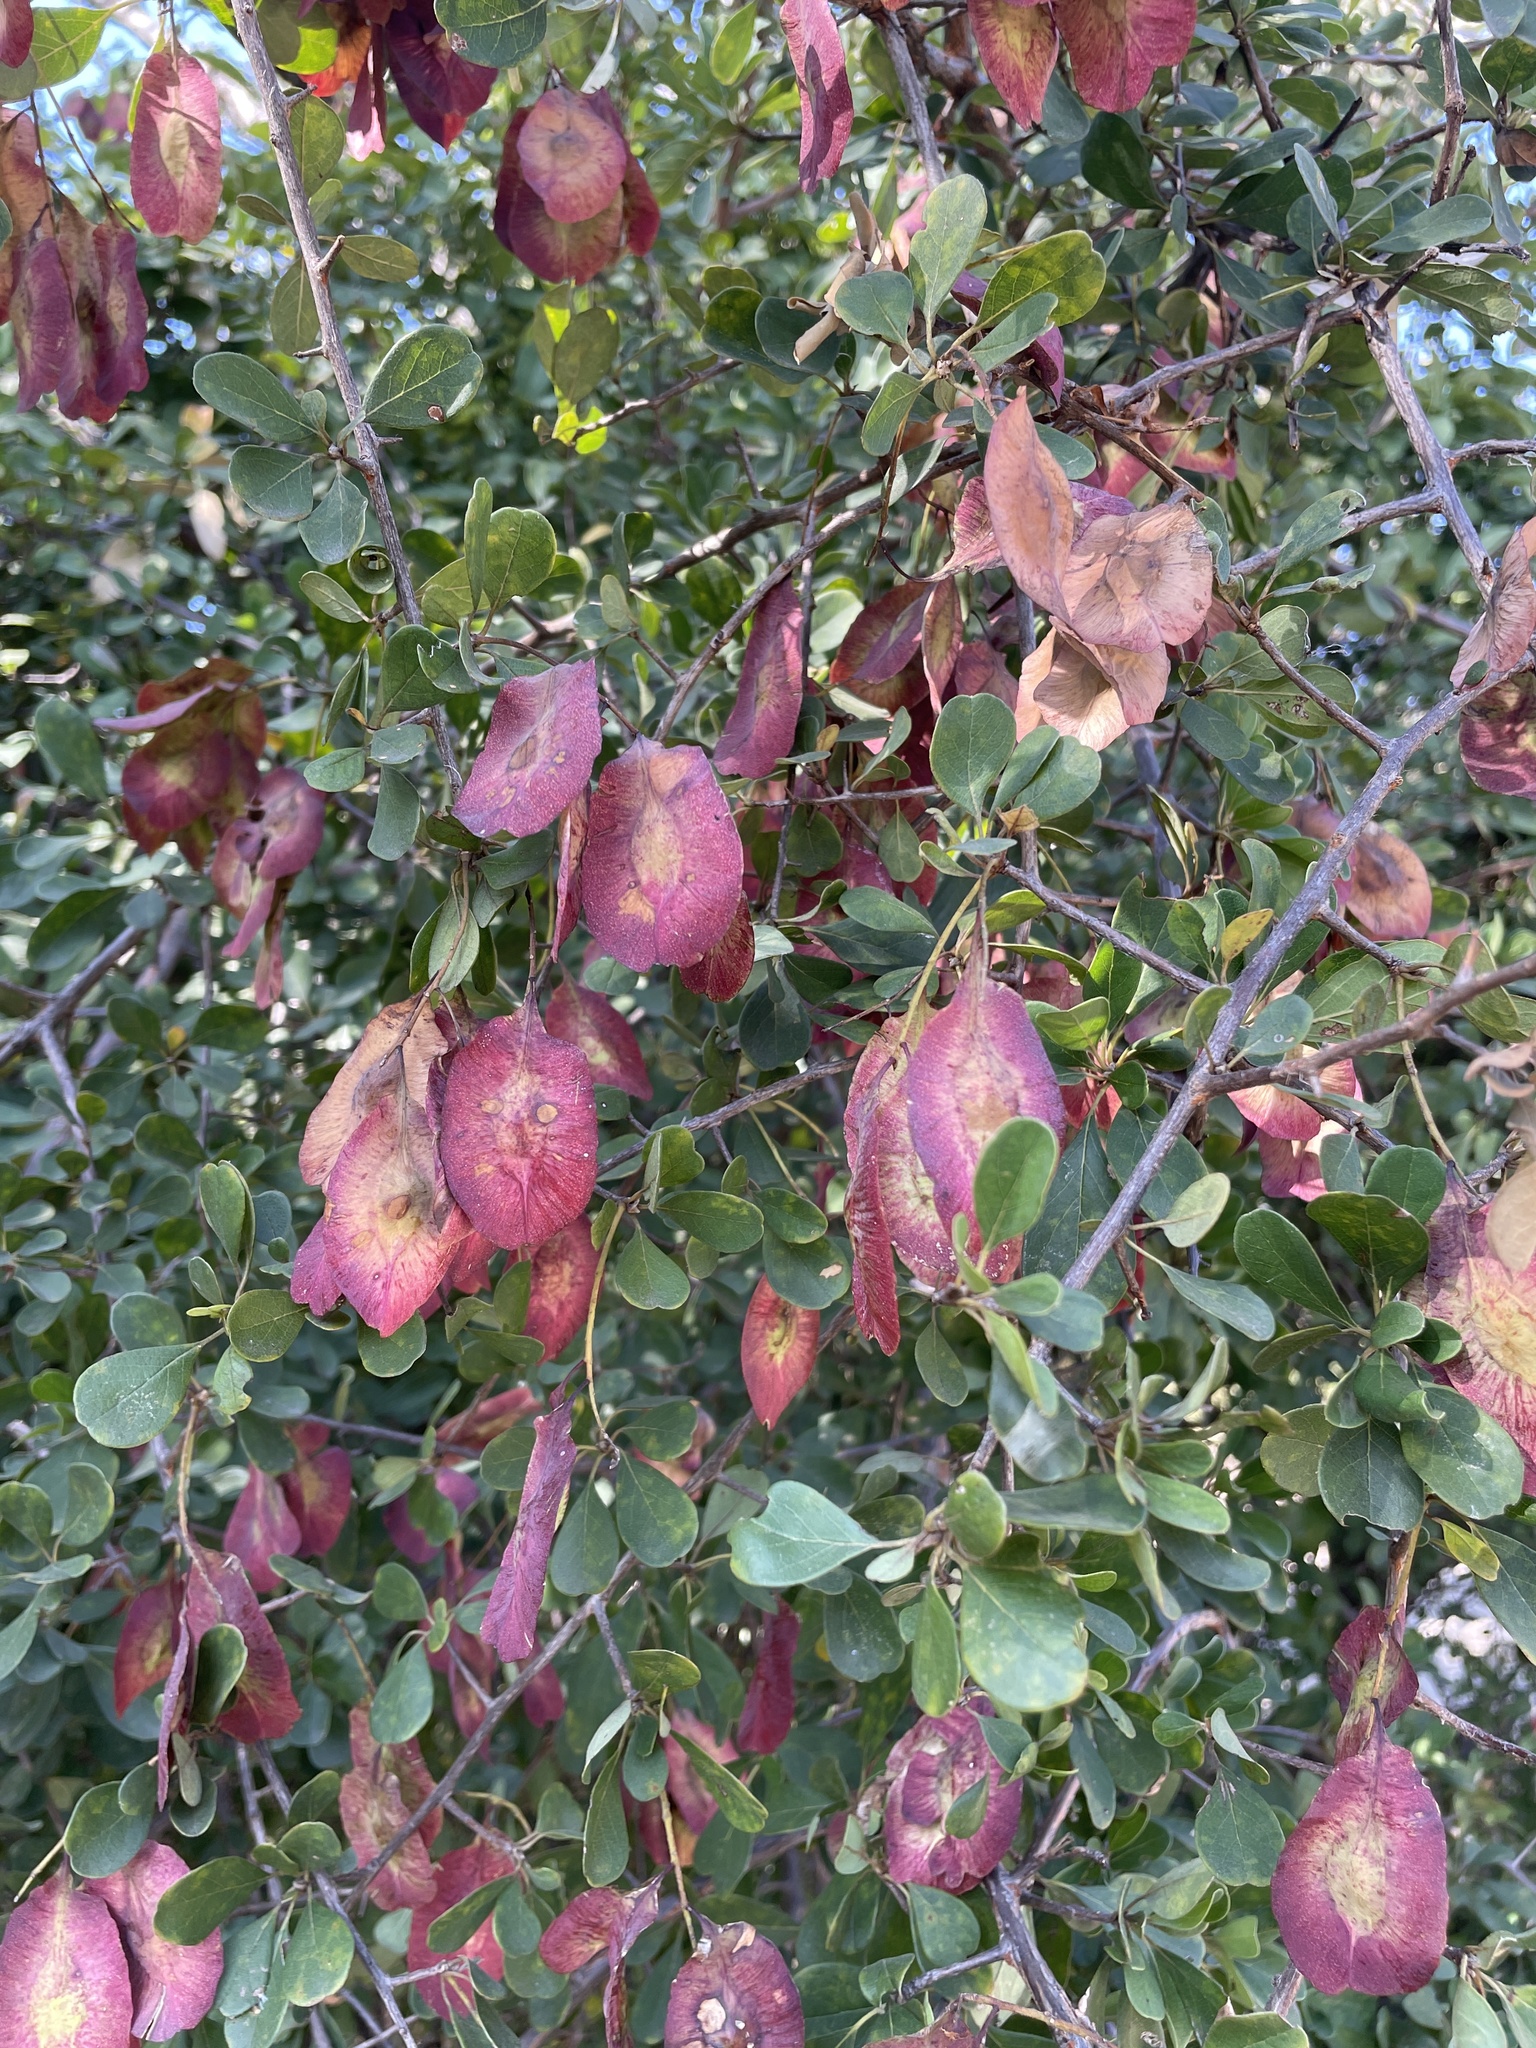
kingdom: Plantae
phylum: Tracheophyta
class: Magnoliopsida
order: Myrtales
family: Combretaceae
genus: Terminalia
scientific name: Terminalia prunioides
